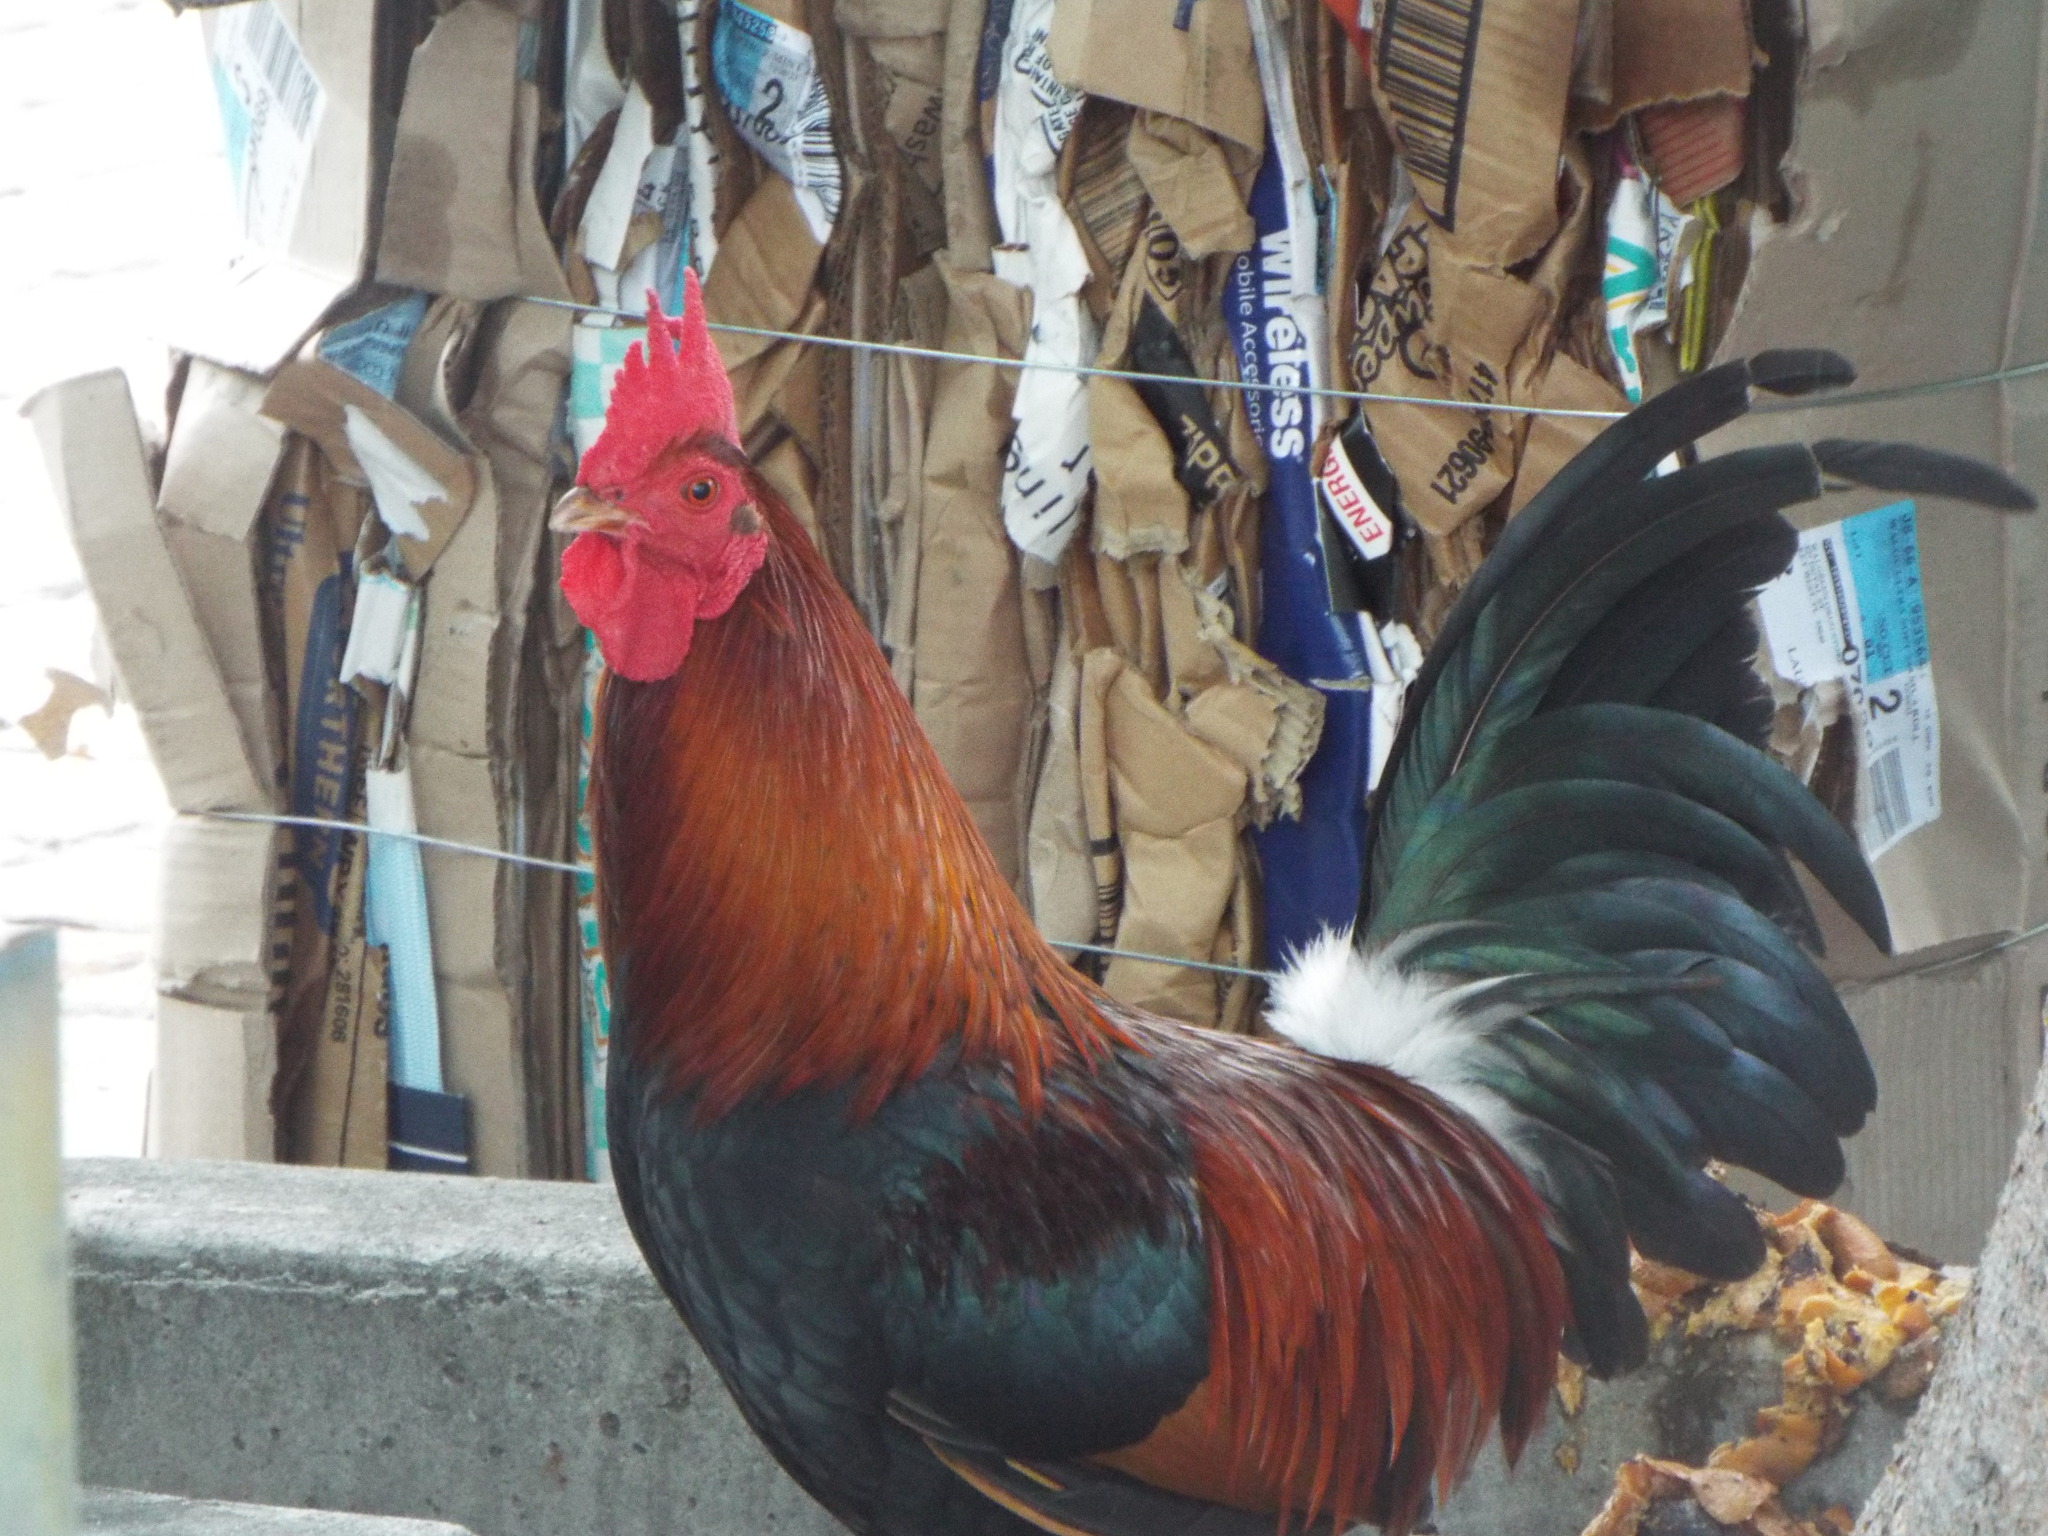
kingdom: Animalia
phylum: Chordata
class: Aves
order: Galliformes
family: Phasianidae
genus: Gallus
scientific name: Gallus gallus
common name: Red junglefowl
